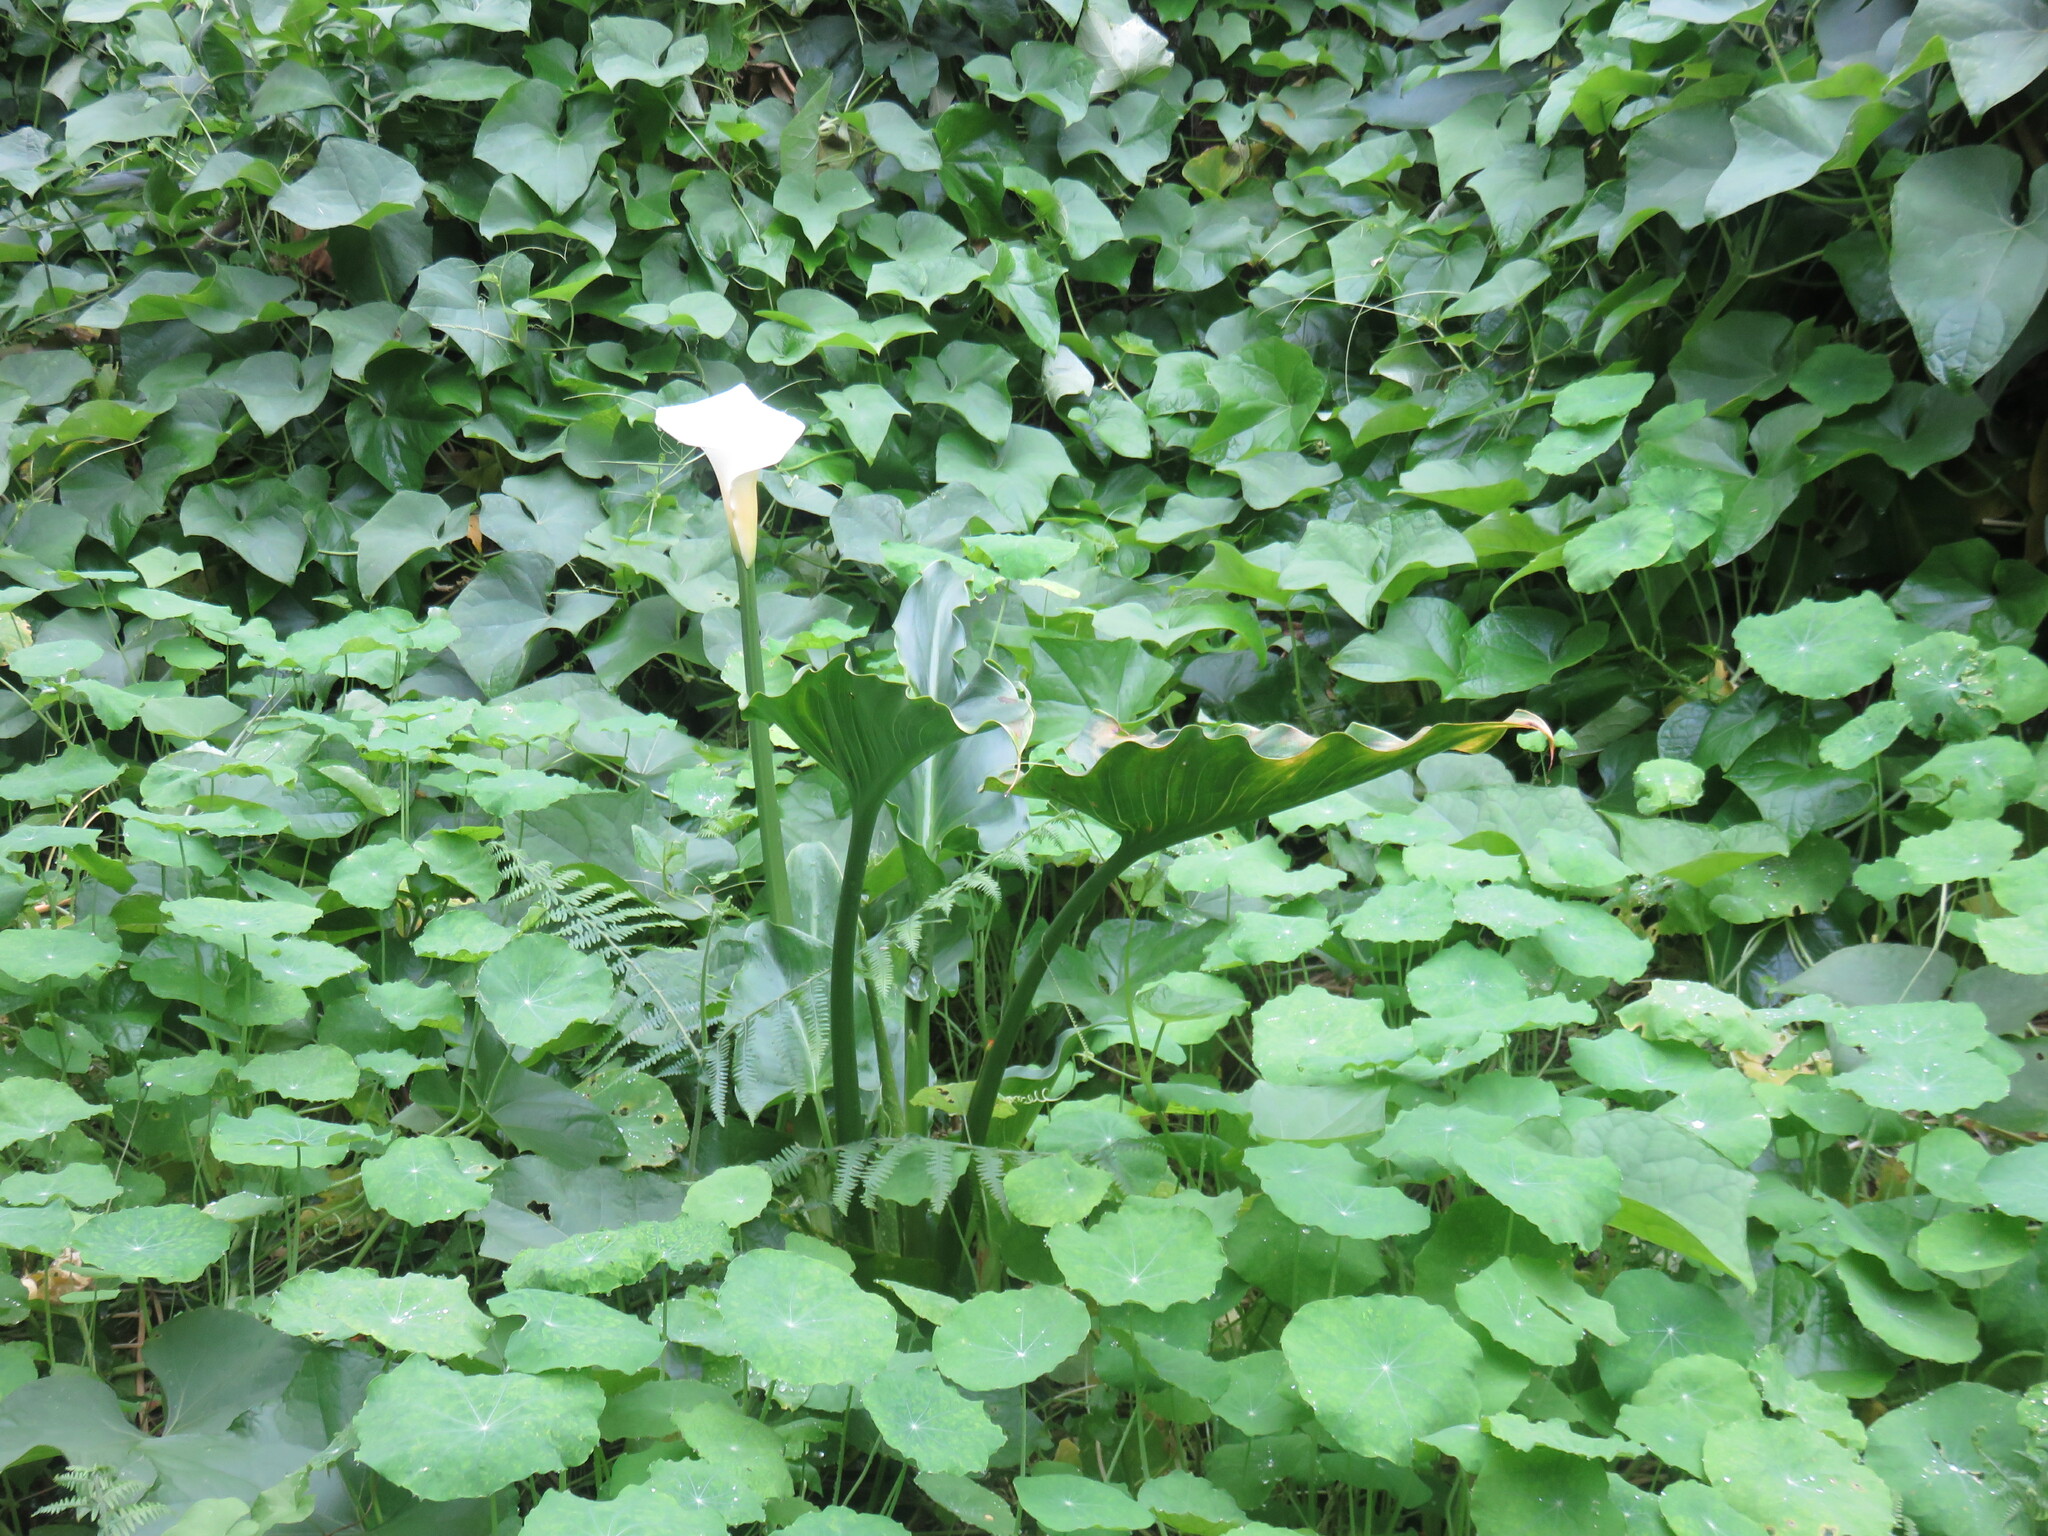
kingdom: Plantae
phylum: Tracheophyta
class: Liliopsida
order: Alismatales
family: Araceae
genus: Zantedeschia
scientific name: Zantedeschia aethiopica
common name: Altar-lily
